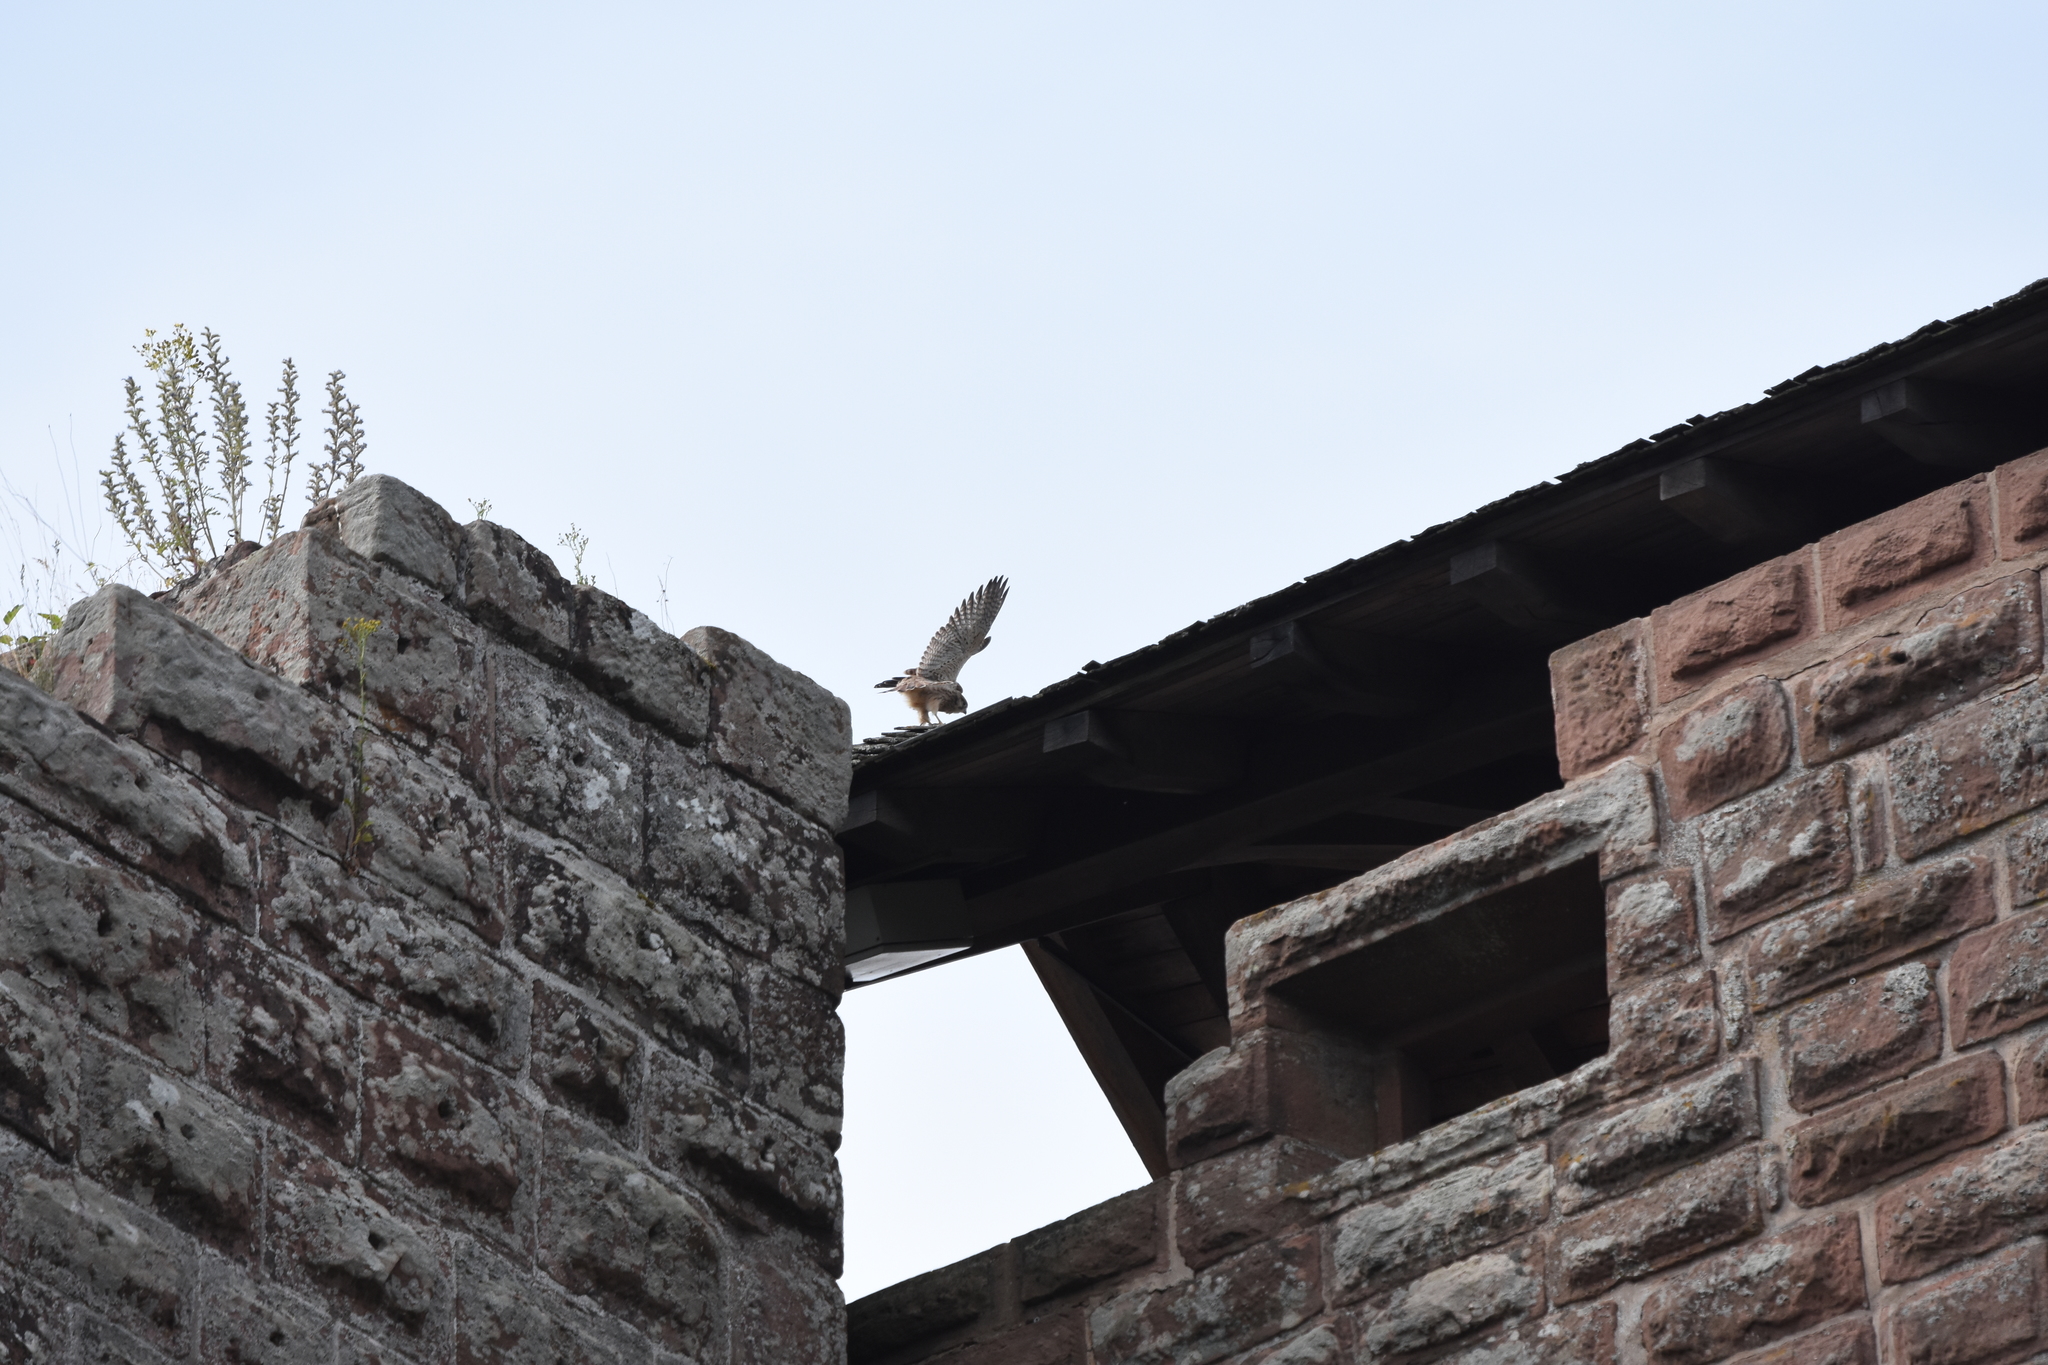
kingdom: Animalia
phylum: Chordata
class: Aves
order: Falconiformes
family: Falconidae
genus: Falco
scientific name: Falco tinnunculus
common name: Common kestrel
